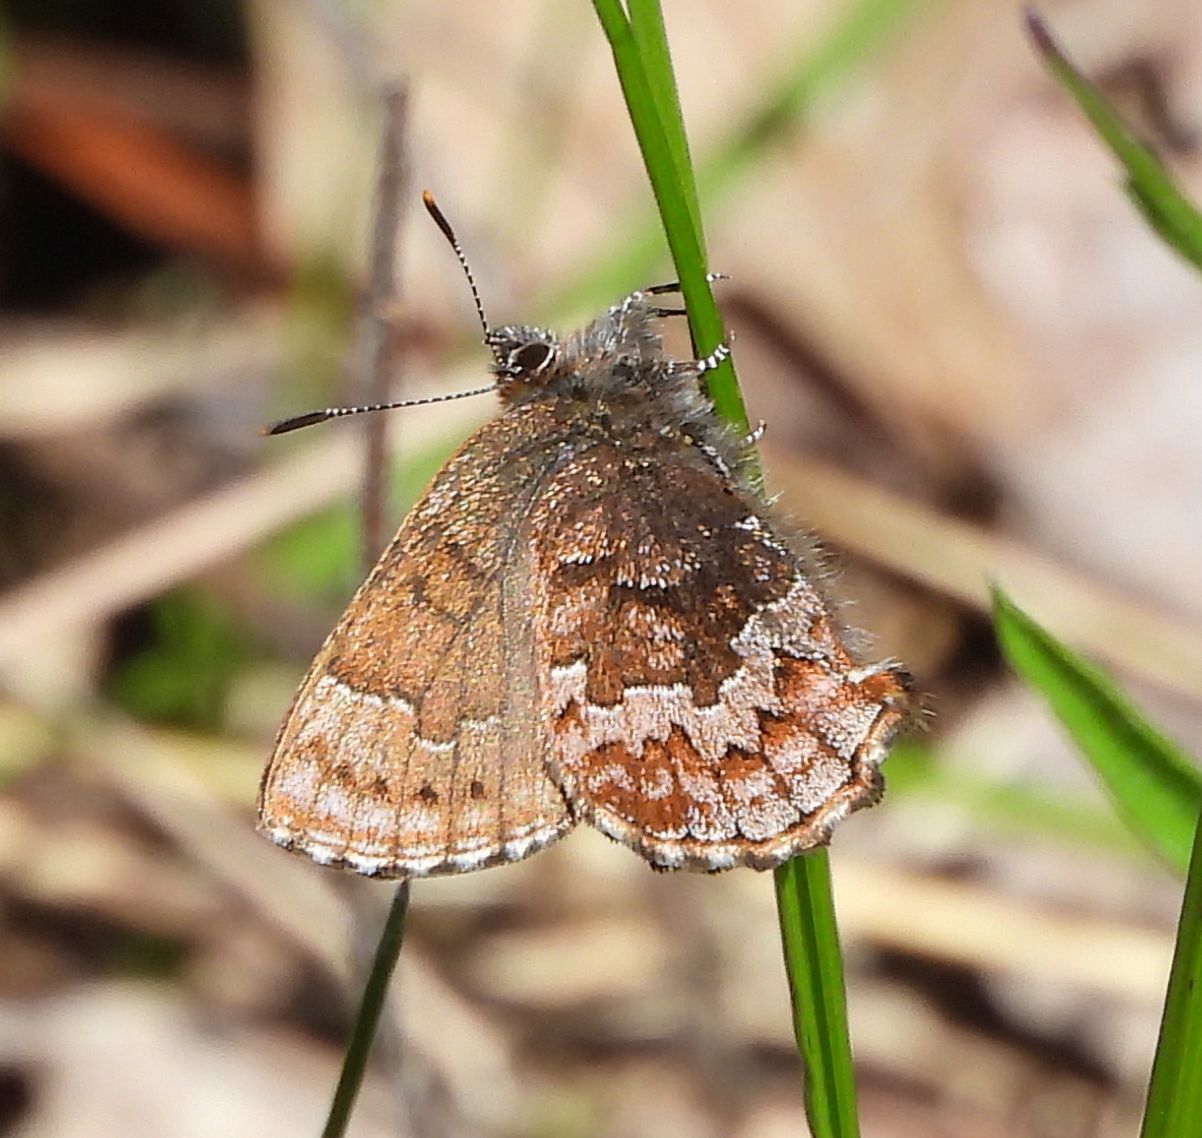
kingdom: Animalia
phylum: Arthropoda
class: Insecta
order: Lepidoptera
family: Lycaenidae
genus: Incisalia
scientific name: Incisalia niphon
